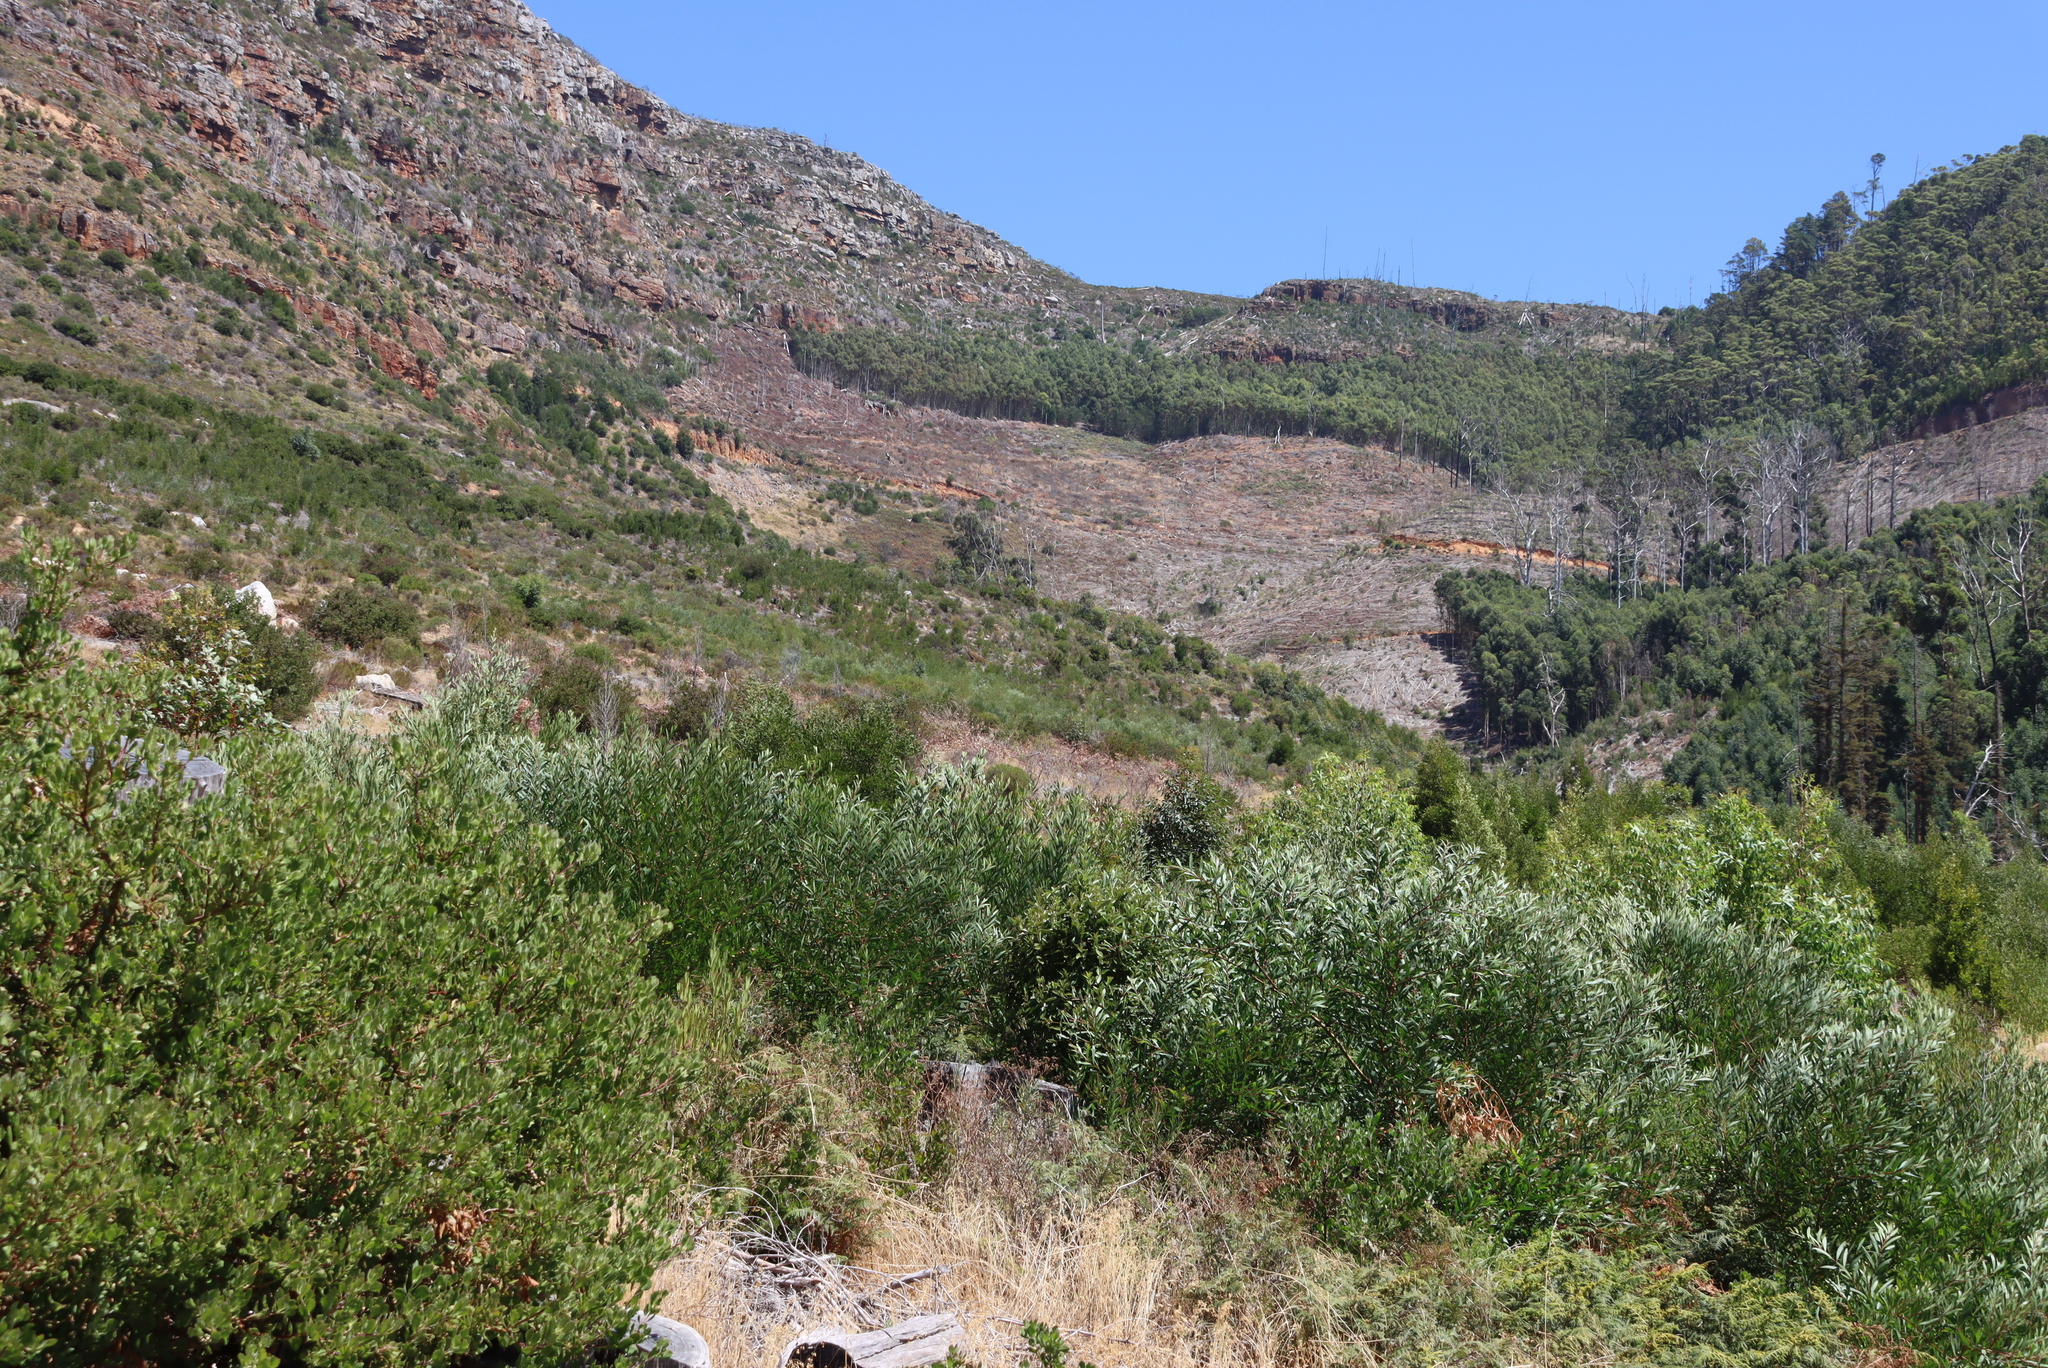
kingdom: Plantae
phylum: Tracheophyta
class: Magnoliopsida
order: Fabales
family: Fabaceae
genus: Acacia
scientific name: Acacia longifolia
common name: Sydney golden wattle
